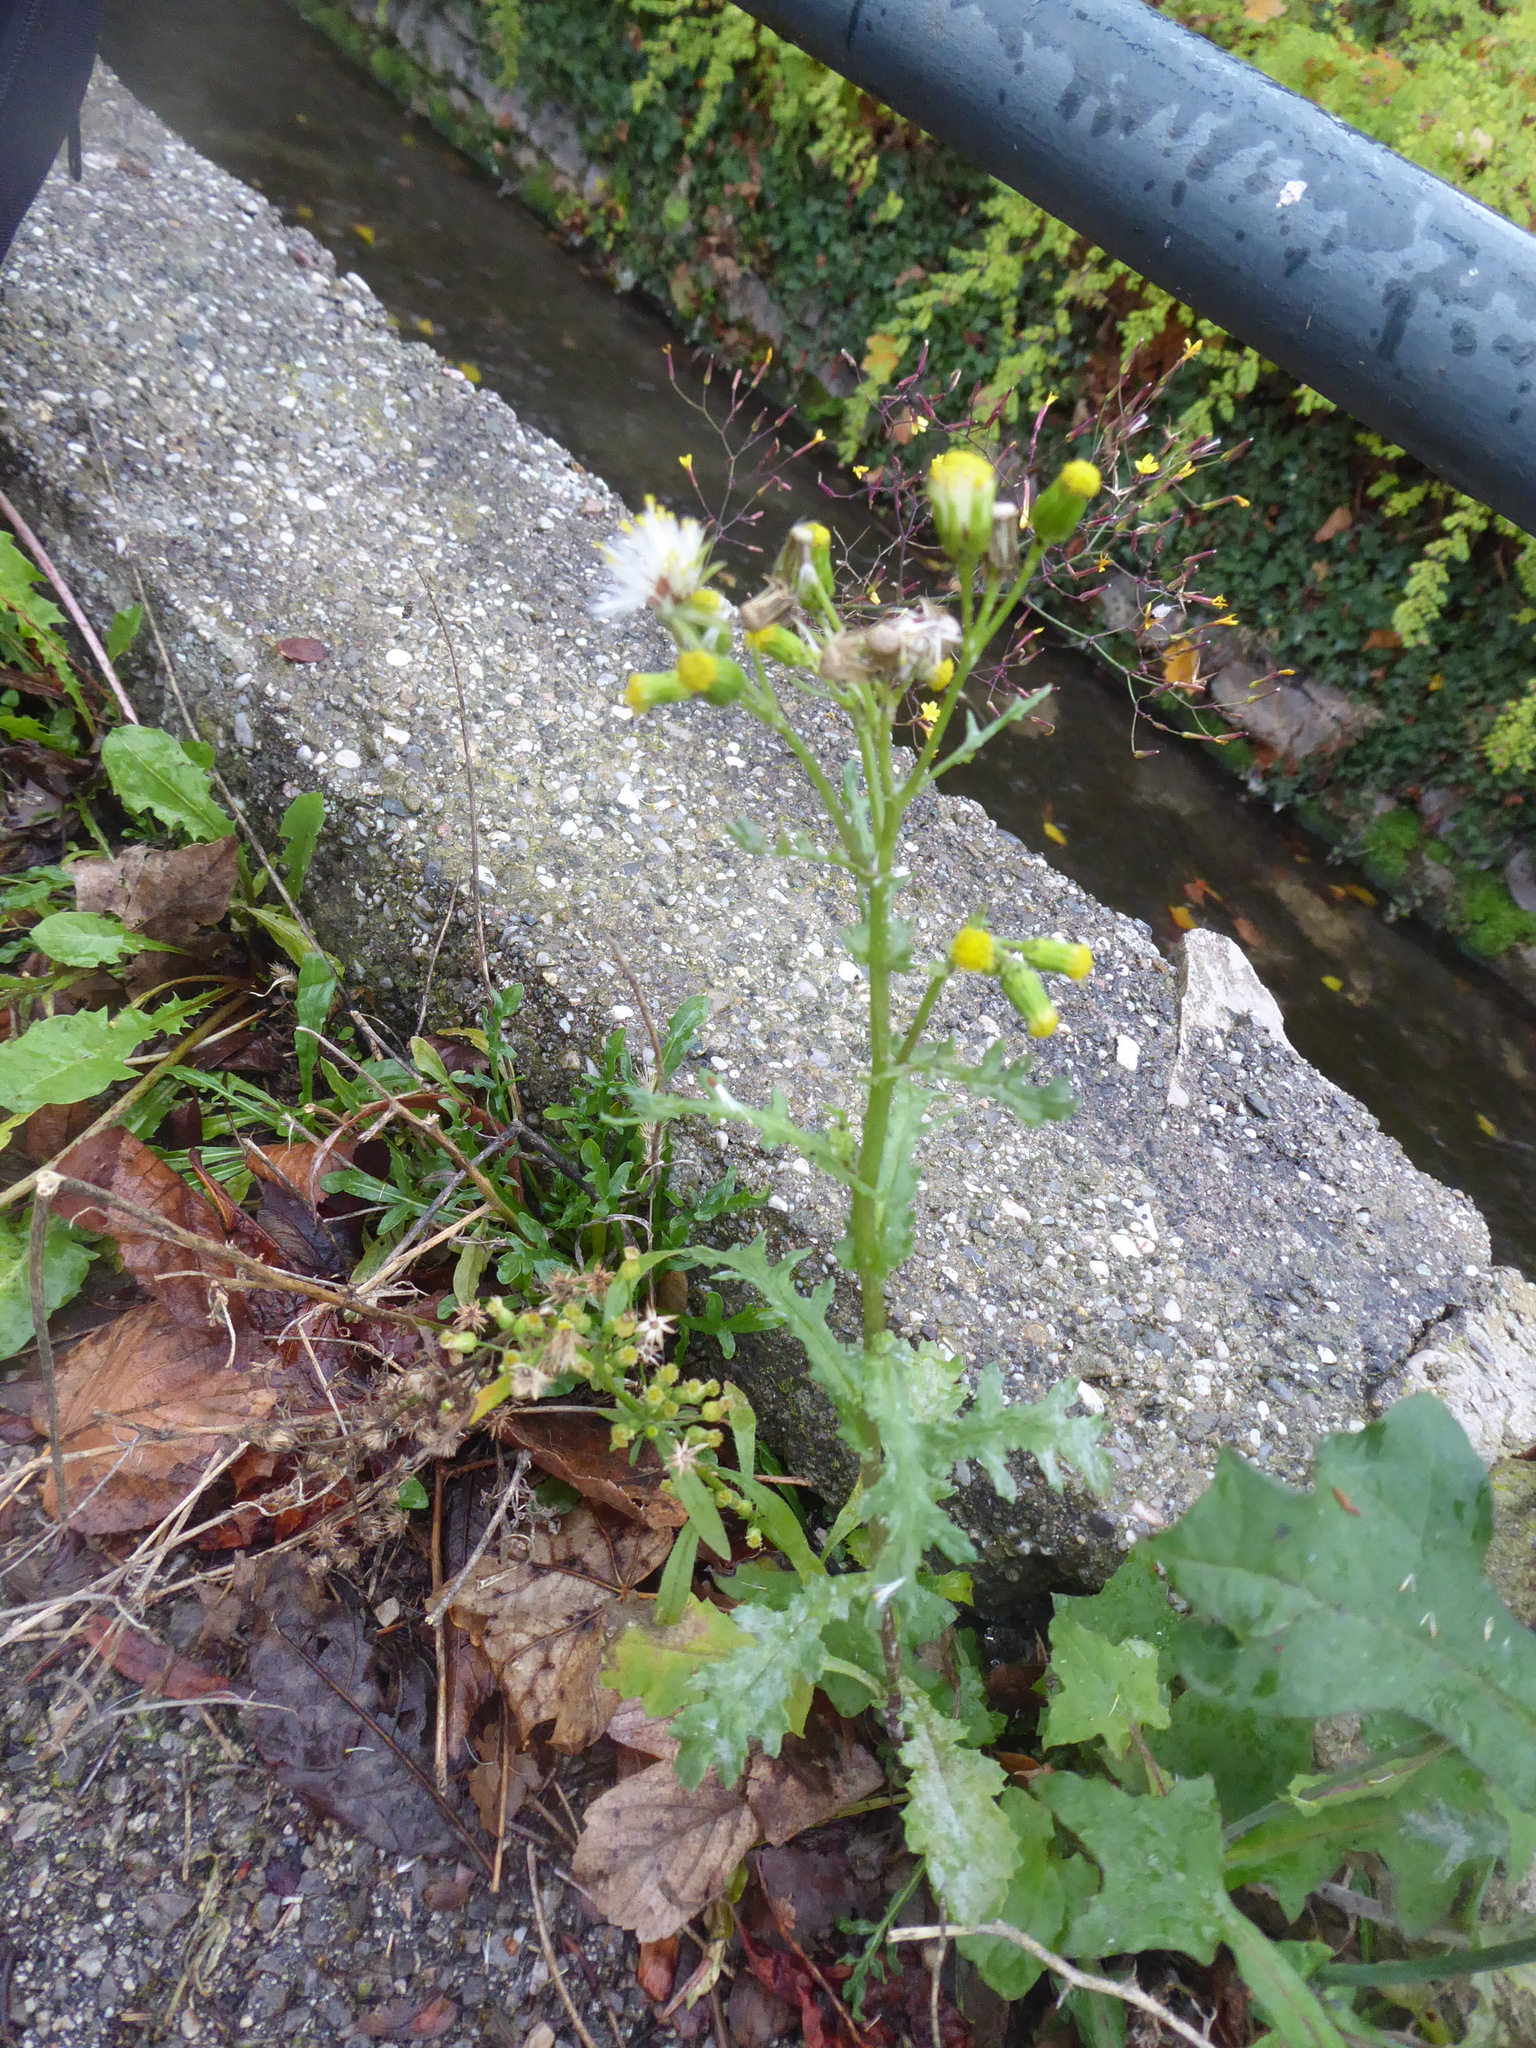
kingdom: Plantae
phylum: Tracheophyta
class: Magnoliopsida
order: Asterales
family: Asteraceae
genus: Senecio
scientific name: Senecio vulgaris
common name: Old-man-in-the-spring
